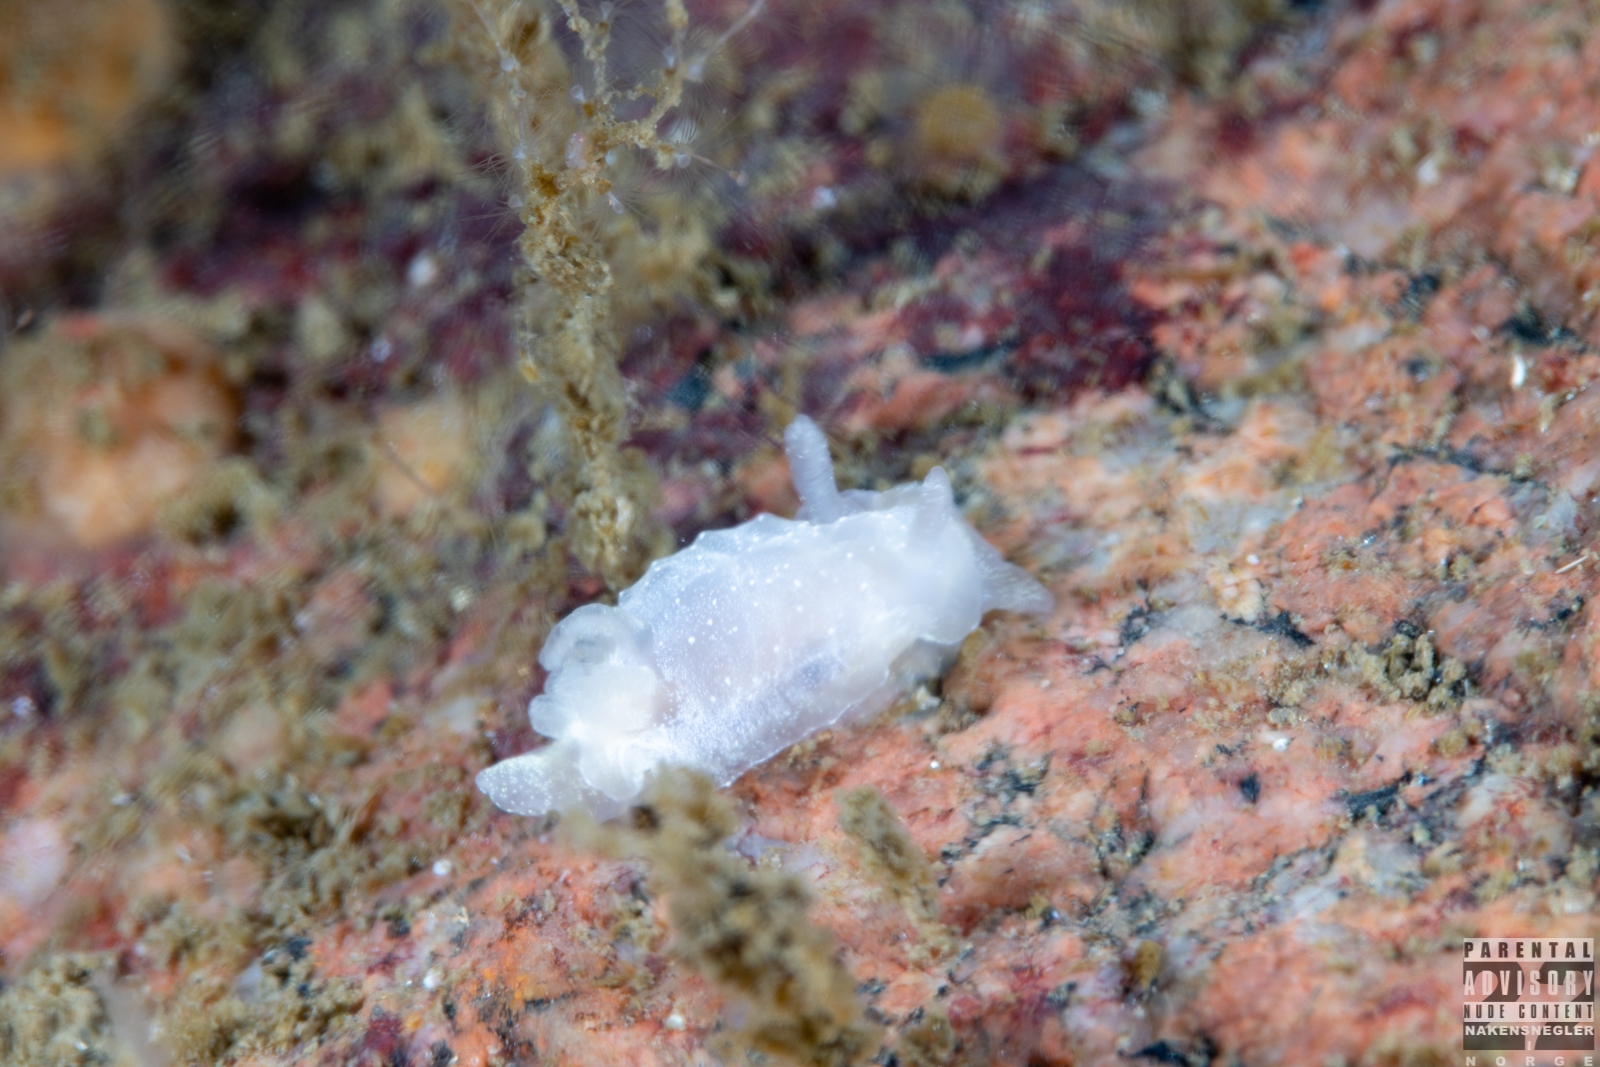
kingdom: Animalia
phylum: Mollusca
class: Gastropoda
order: Nudibranchia
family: Goniodorididae
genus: Okenia
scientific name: Okenia
